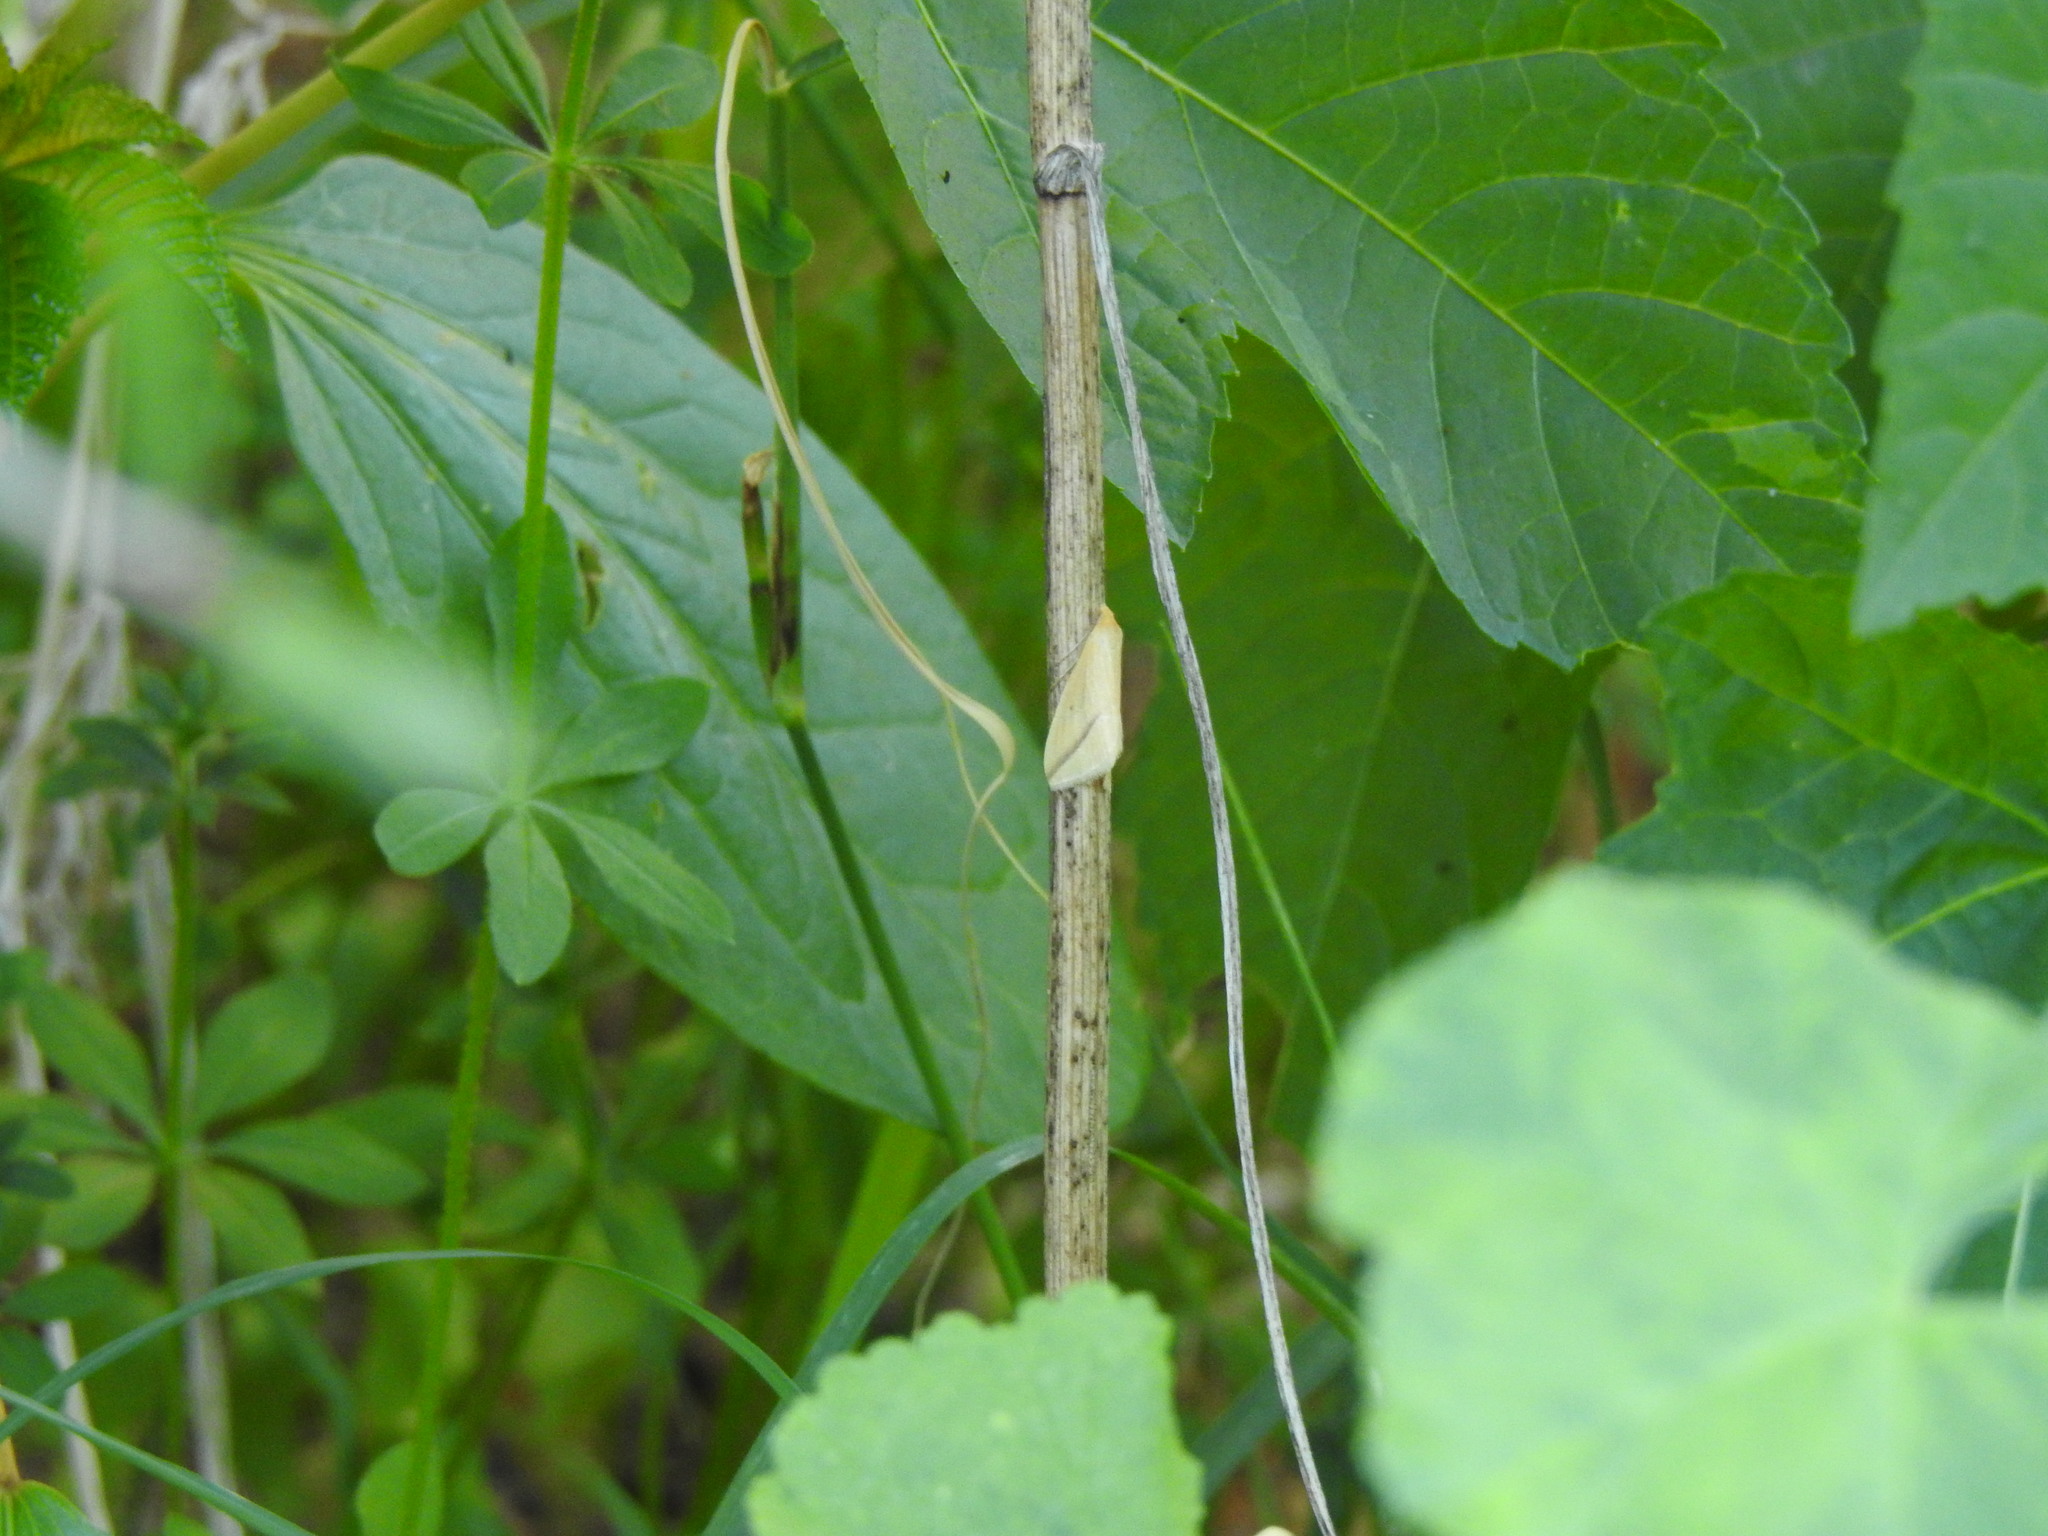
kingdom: Animalia
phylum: Arthropoda
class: Insecta
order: Lepidoptera
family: Geometridae
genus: Rhodometra
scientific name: Rhodometra sacraria
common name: Vestal
